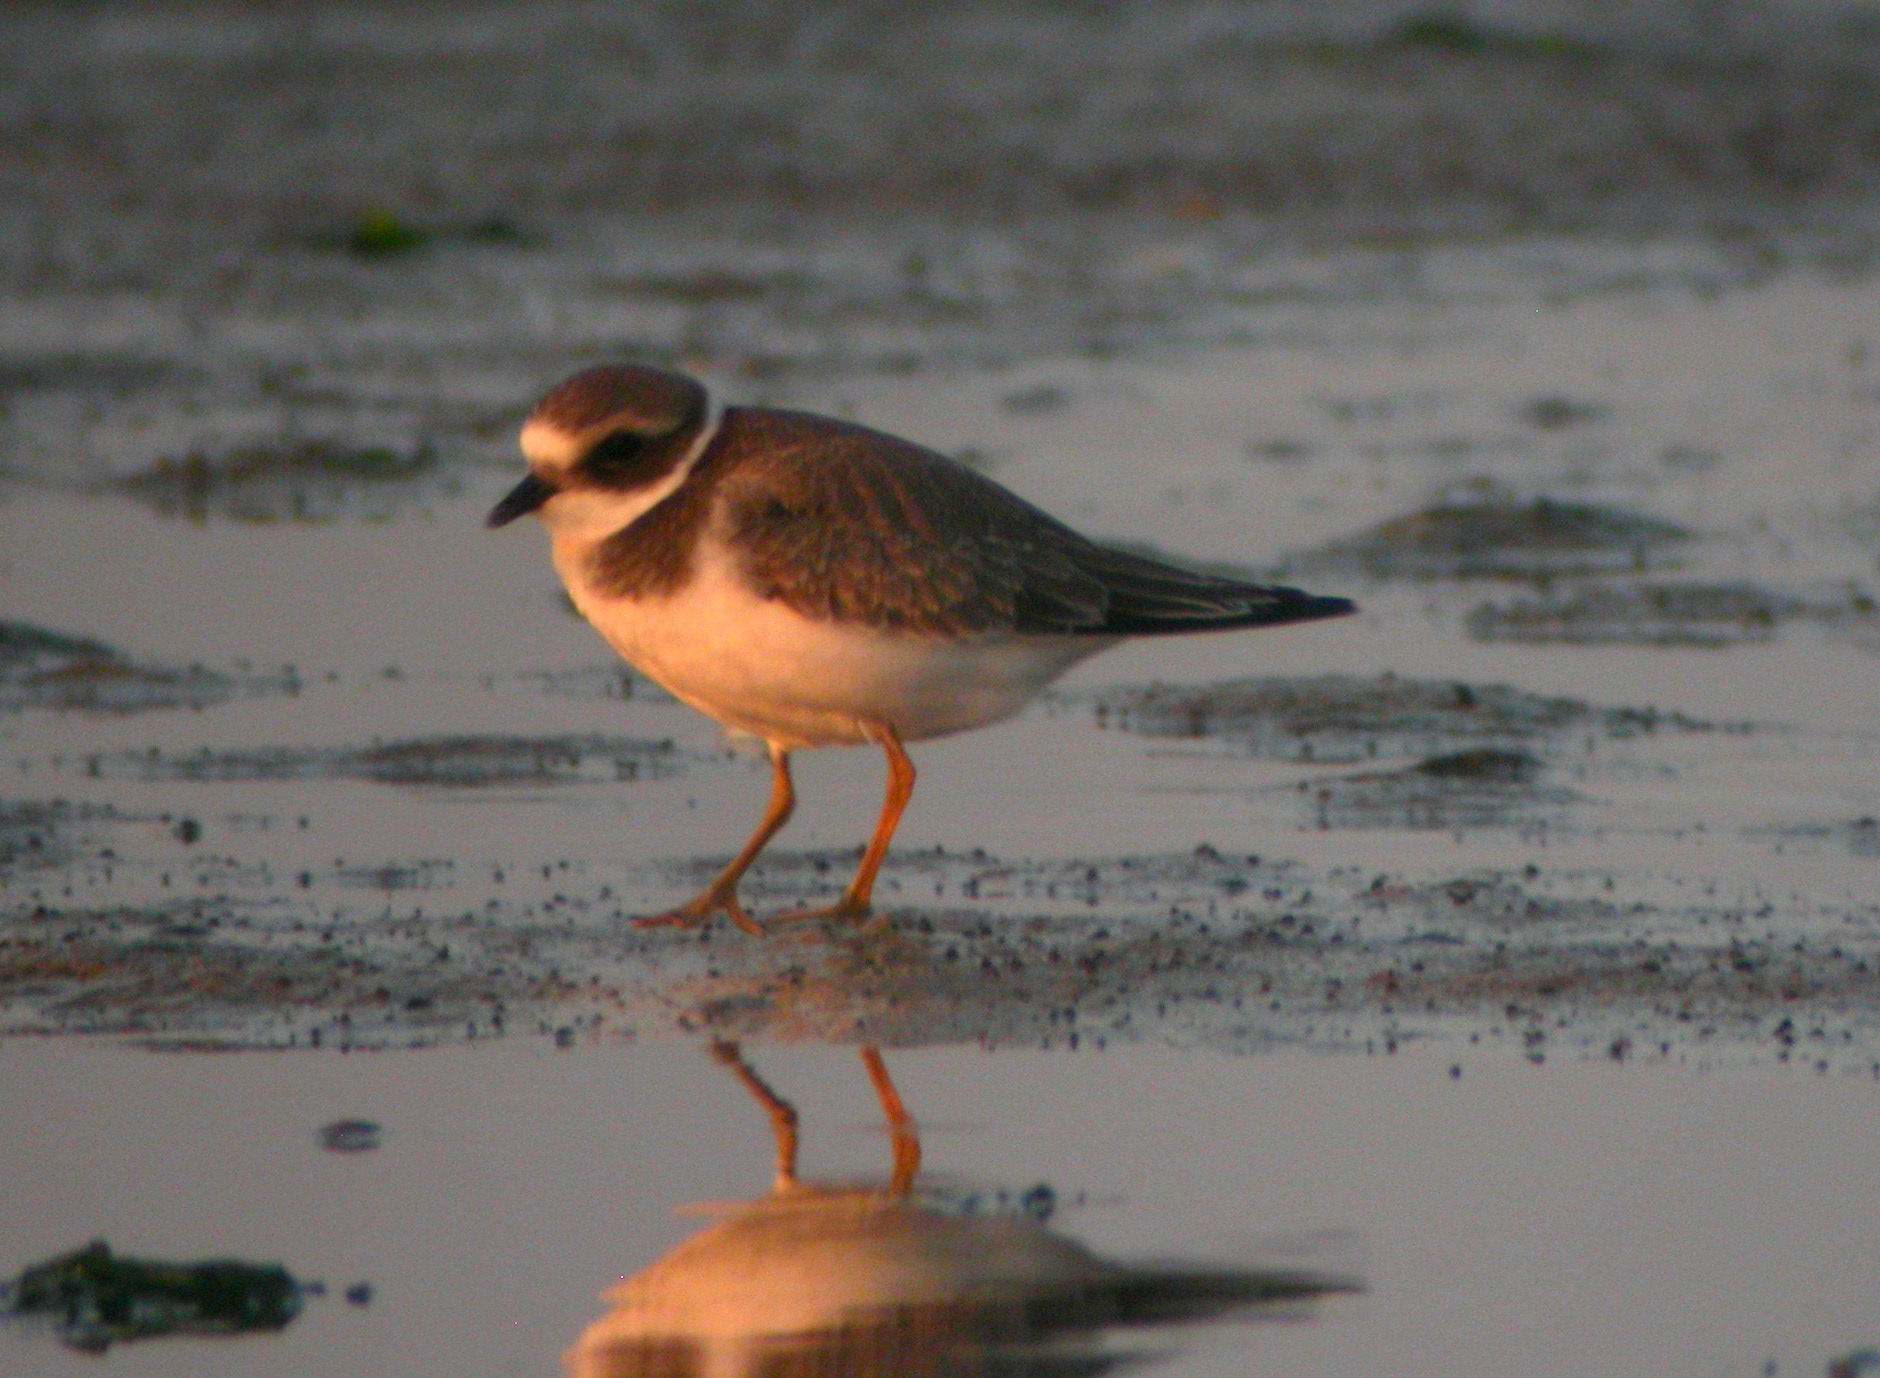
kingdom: Animalia
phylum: Chordata
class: Aves
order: Charadriiformes
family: Charadriidae
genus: Charadrius
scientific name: Charadrius hiaticula
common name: Common ringed plover
